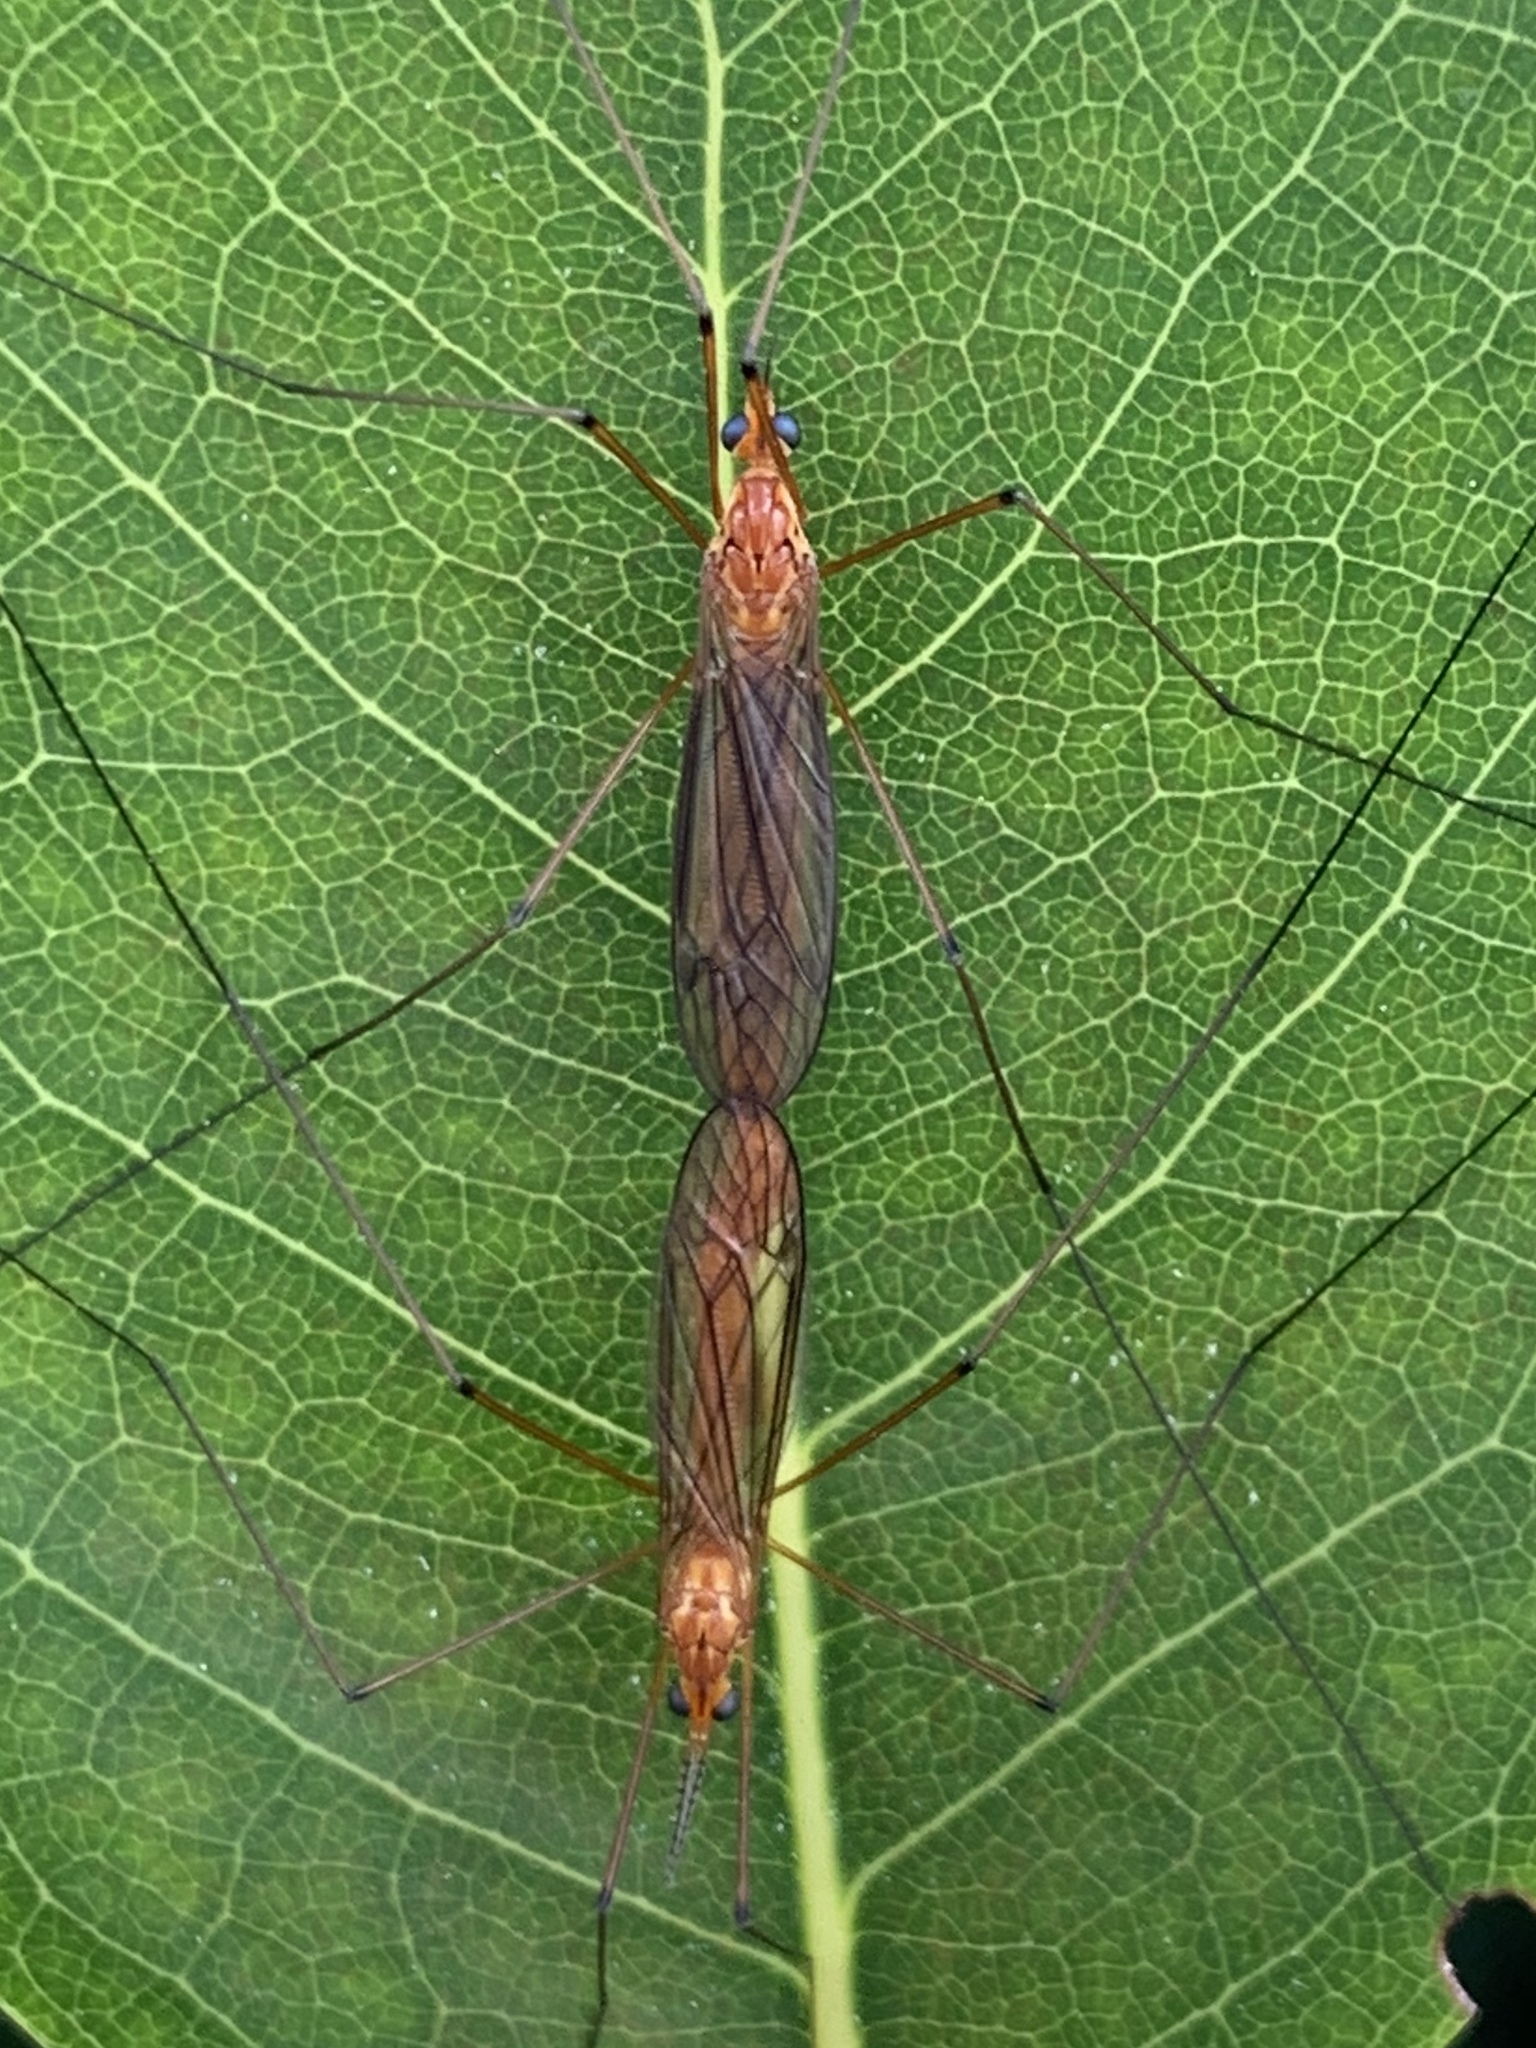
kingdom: Animalia
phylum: Arthropoda
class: Insecta
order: Diptera
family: Tipulidae
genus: Nephrotoma
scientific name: Nephrotoma suturalis
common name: Cranefly
